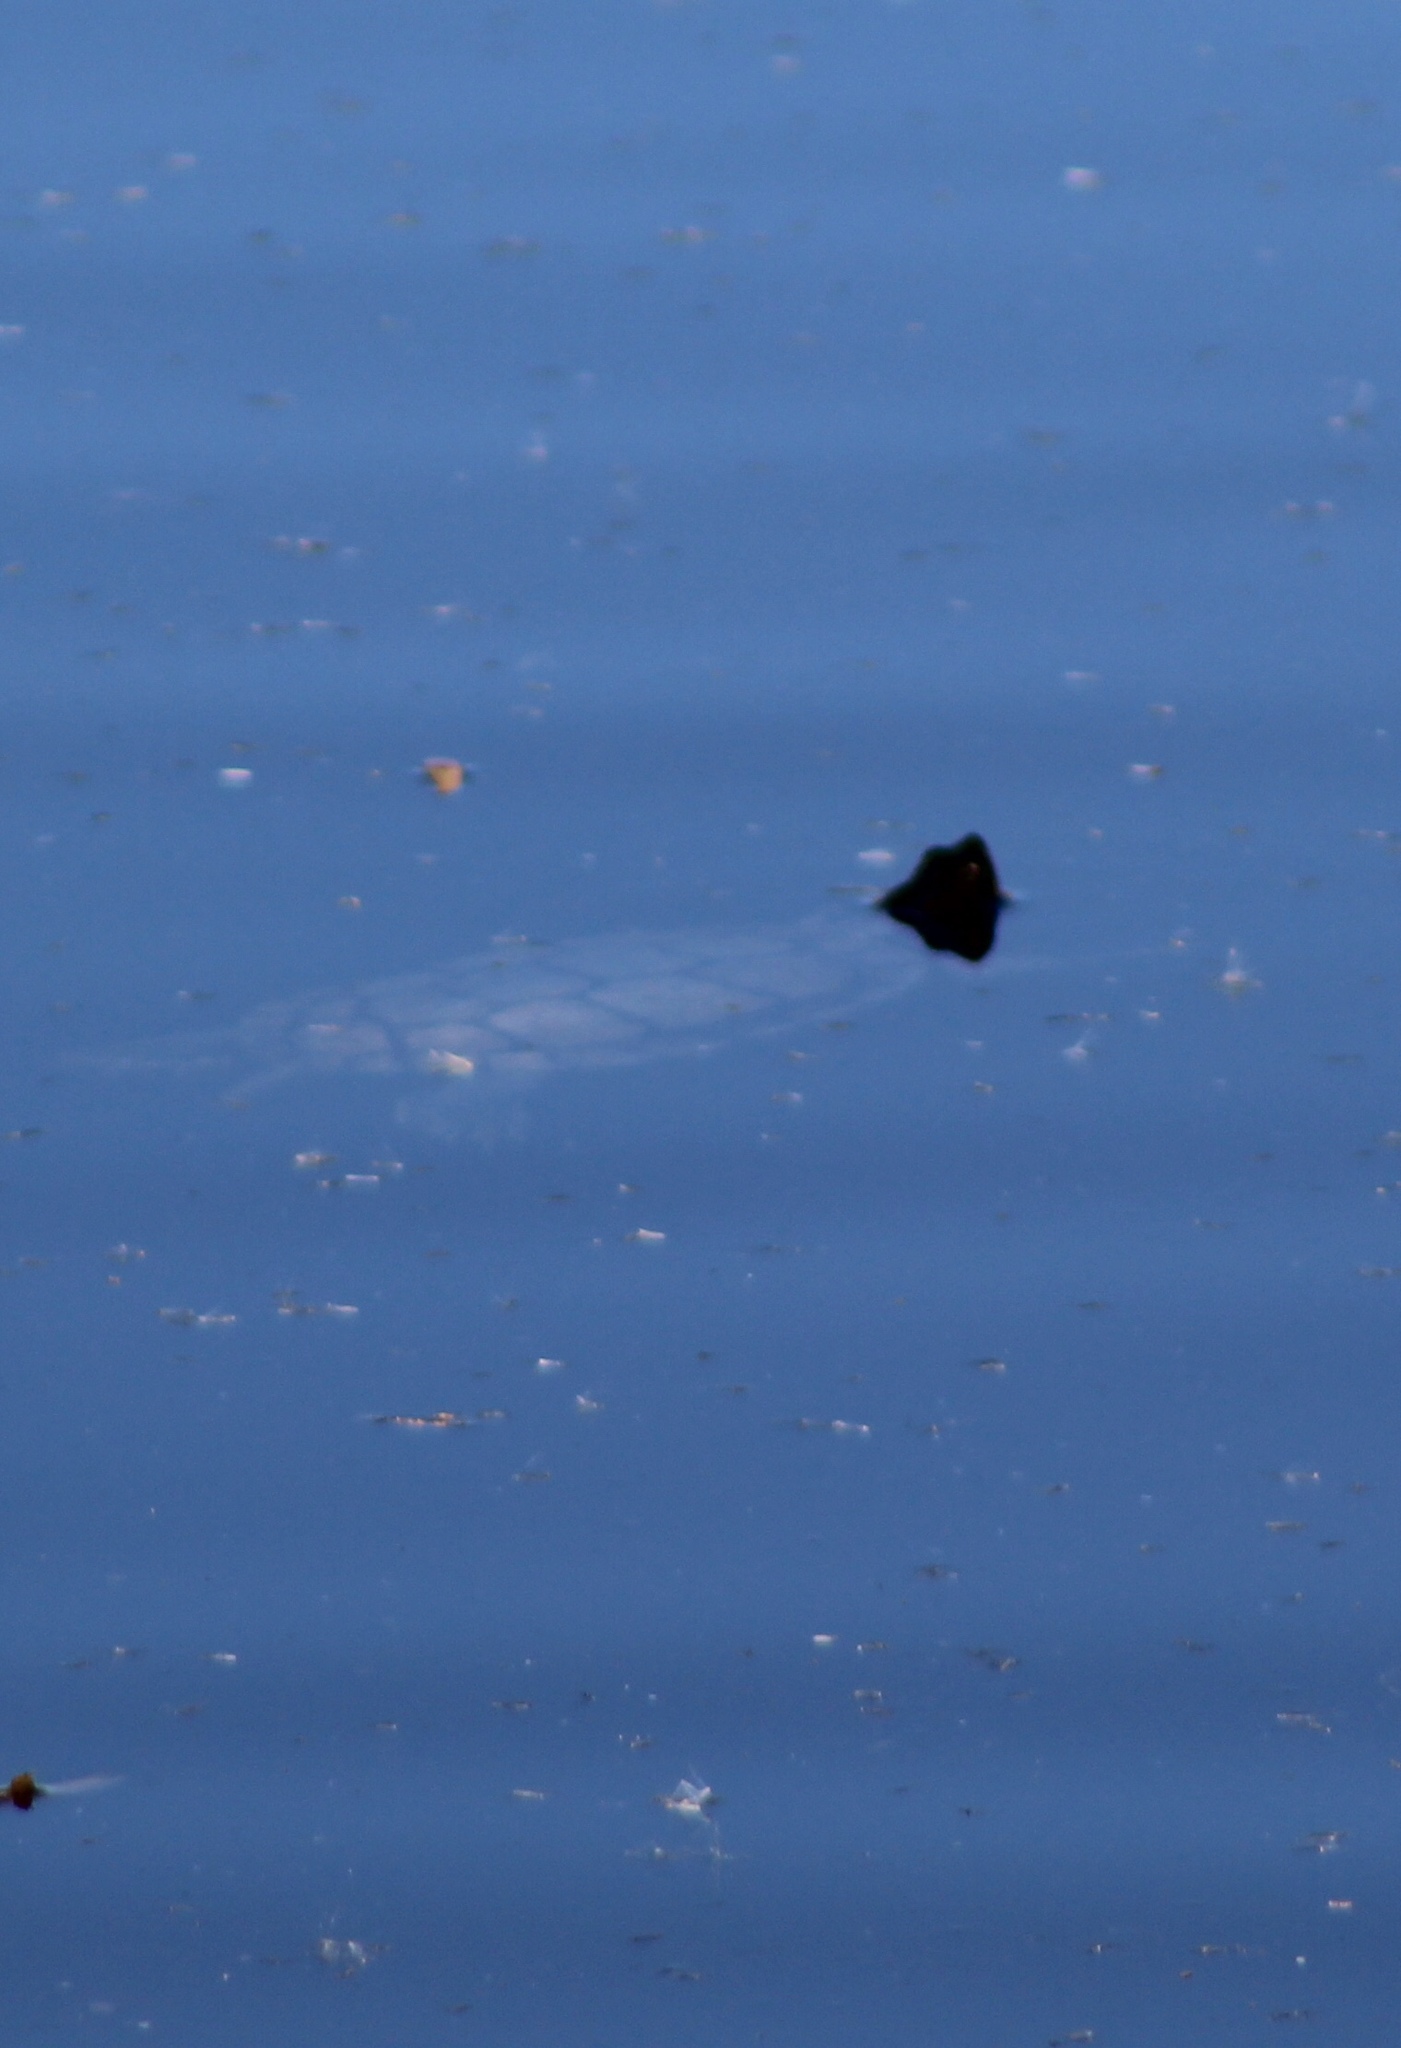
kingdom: Animalia
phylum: Chordata
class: Testudines
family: Emydidae
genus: Trachemys
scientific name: Trachemys scripta
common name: Slider
